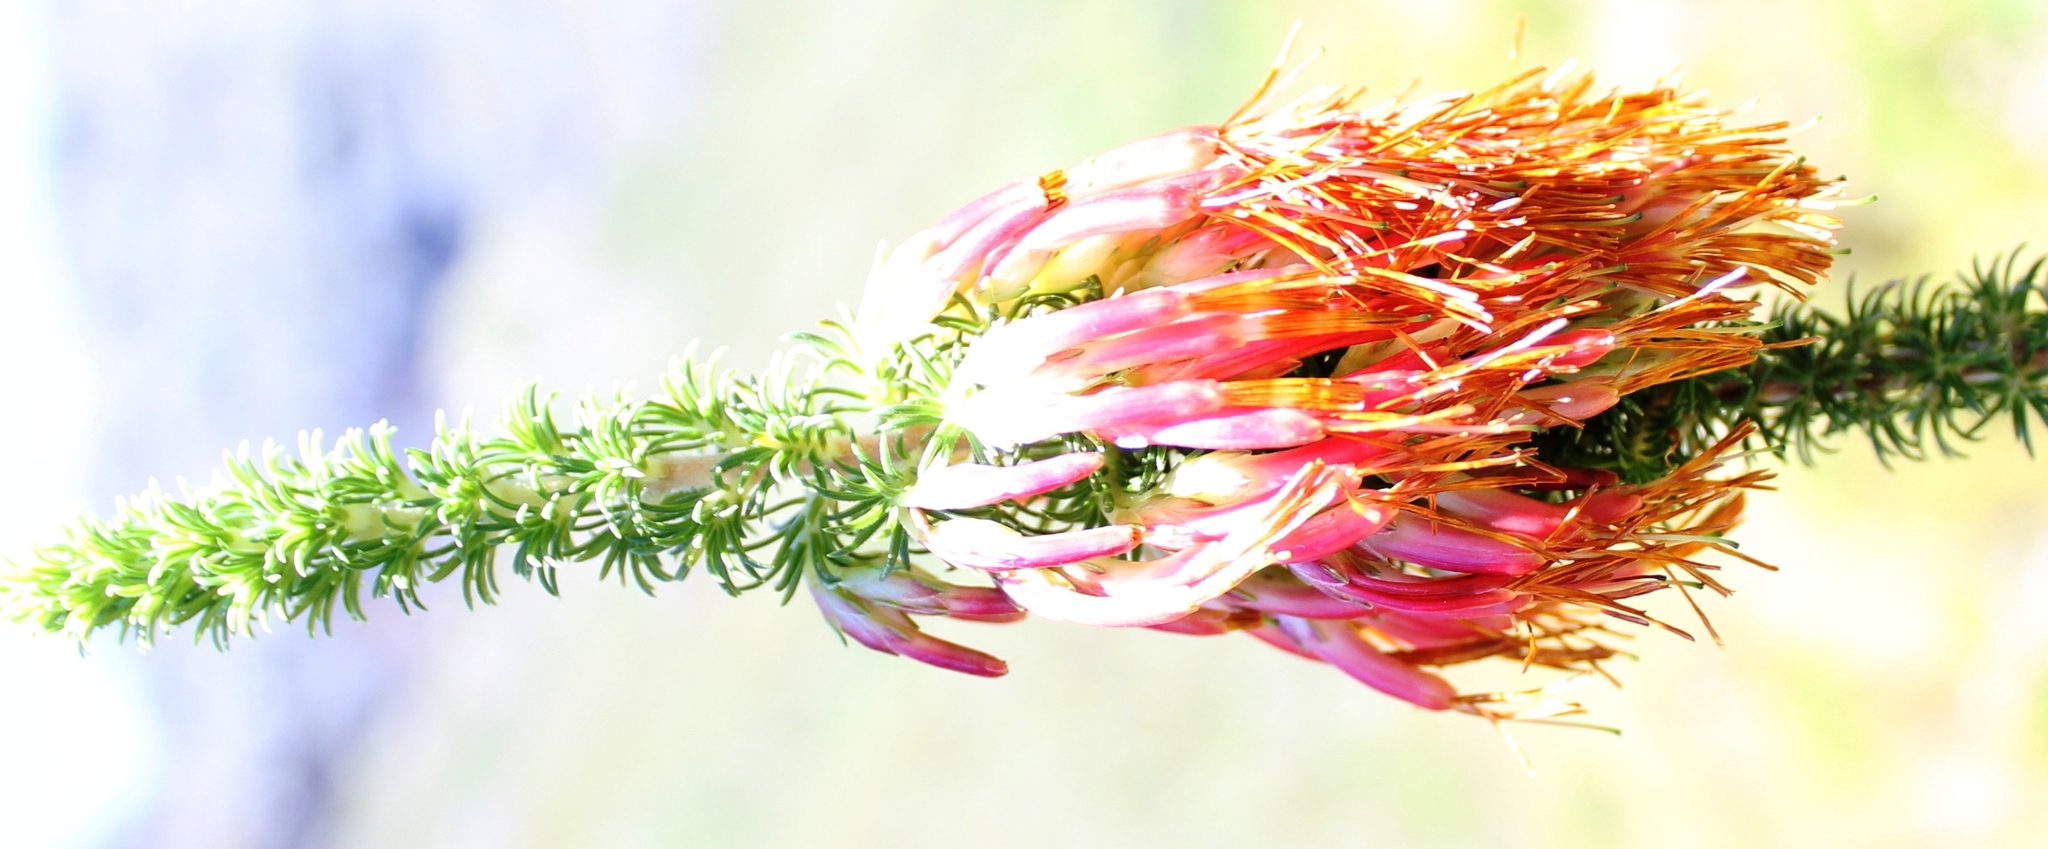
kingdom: Plantae
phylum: Tracheophyta
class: Magnoliopsida
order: Ericales
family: Ericaceae
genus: Erica
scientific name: Erica coccinea
